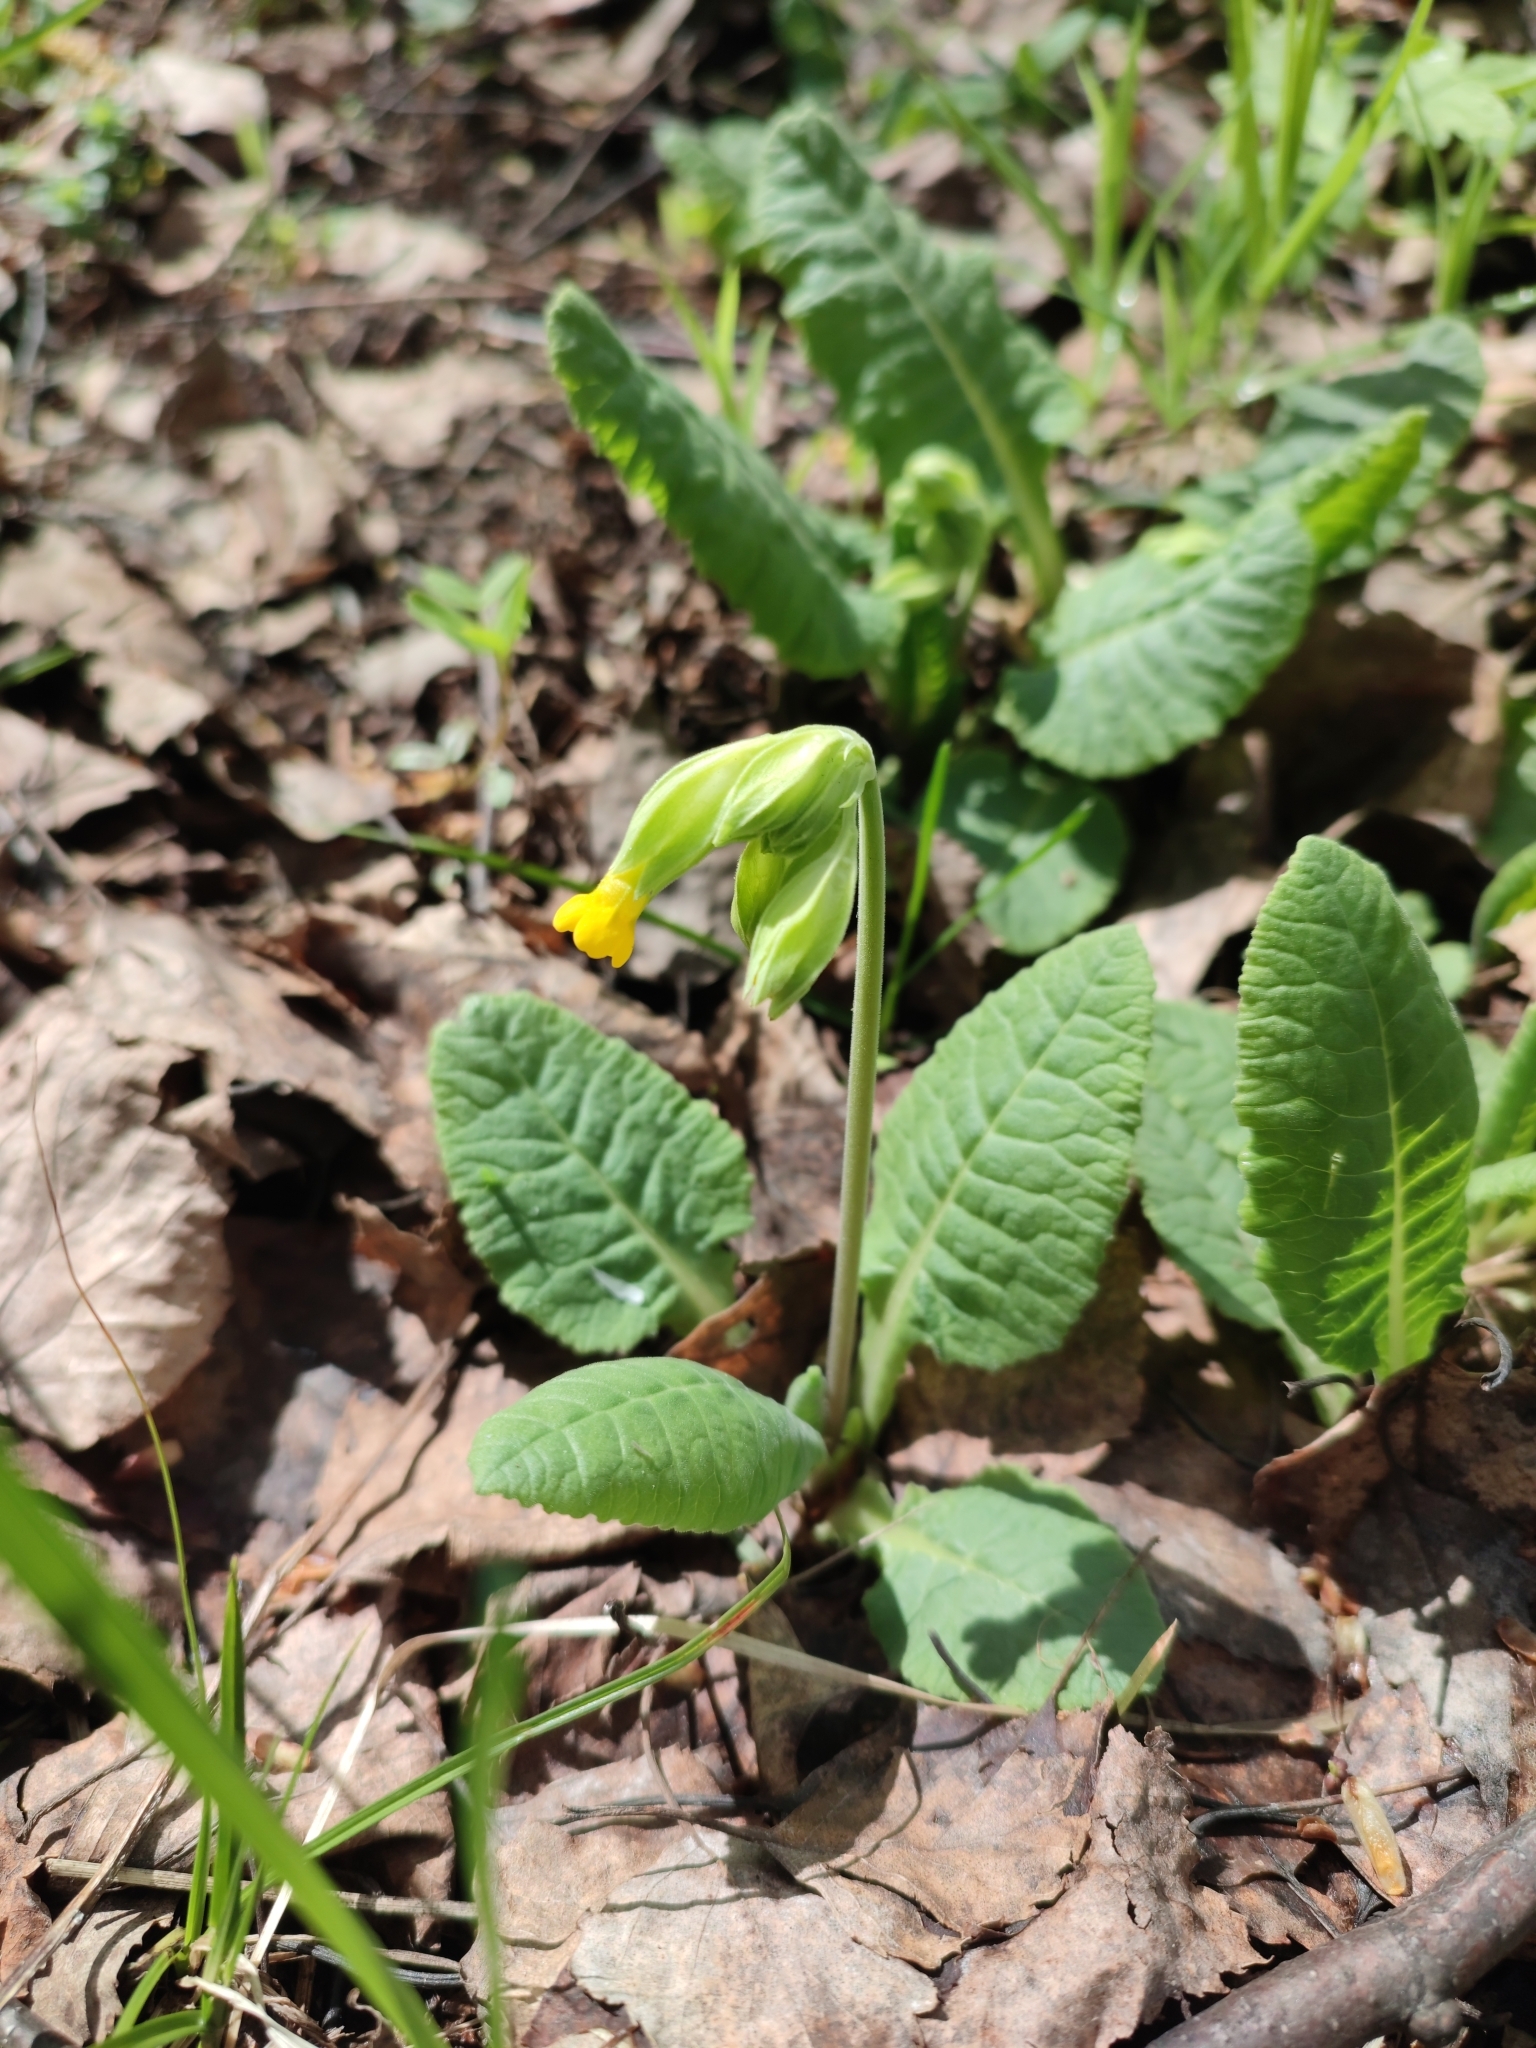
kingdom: Plantae
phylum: Tracheophyta
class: Magnoliopsida
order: Ericales
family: Primulaceae
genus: Primula
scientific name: Primula veris
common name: Cowslip
